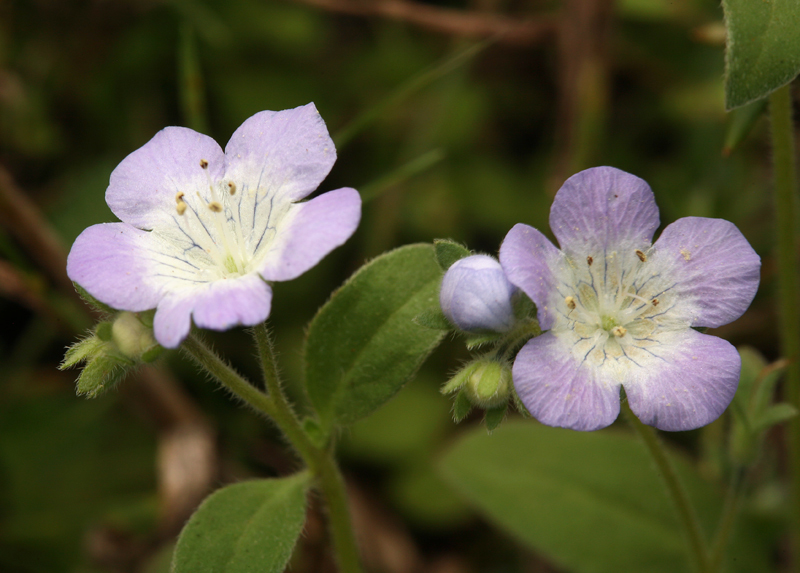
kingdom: Plantae
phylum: Tracheophyta
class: Magnoliopsida
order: Boraginales
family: Hydrophyllaceae
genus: Phacelia
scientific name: Phacelia insularis
